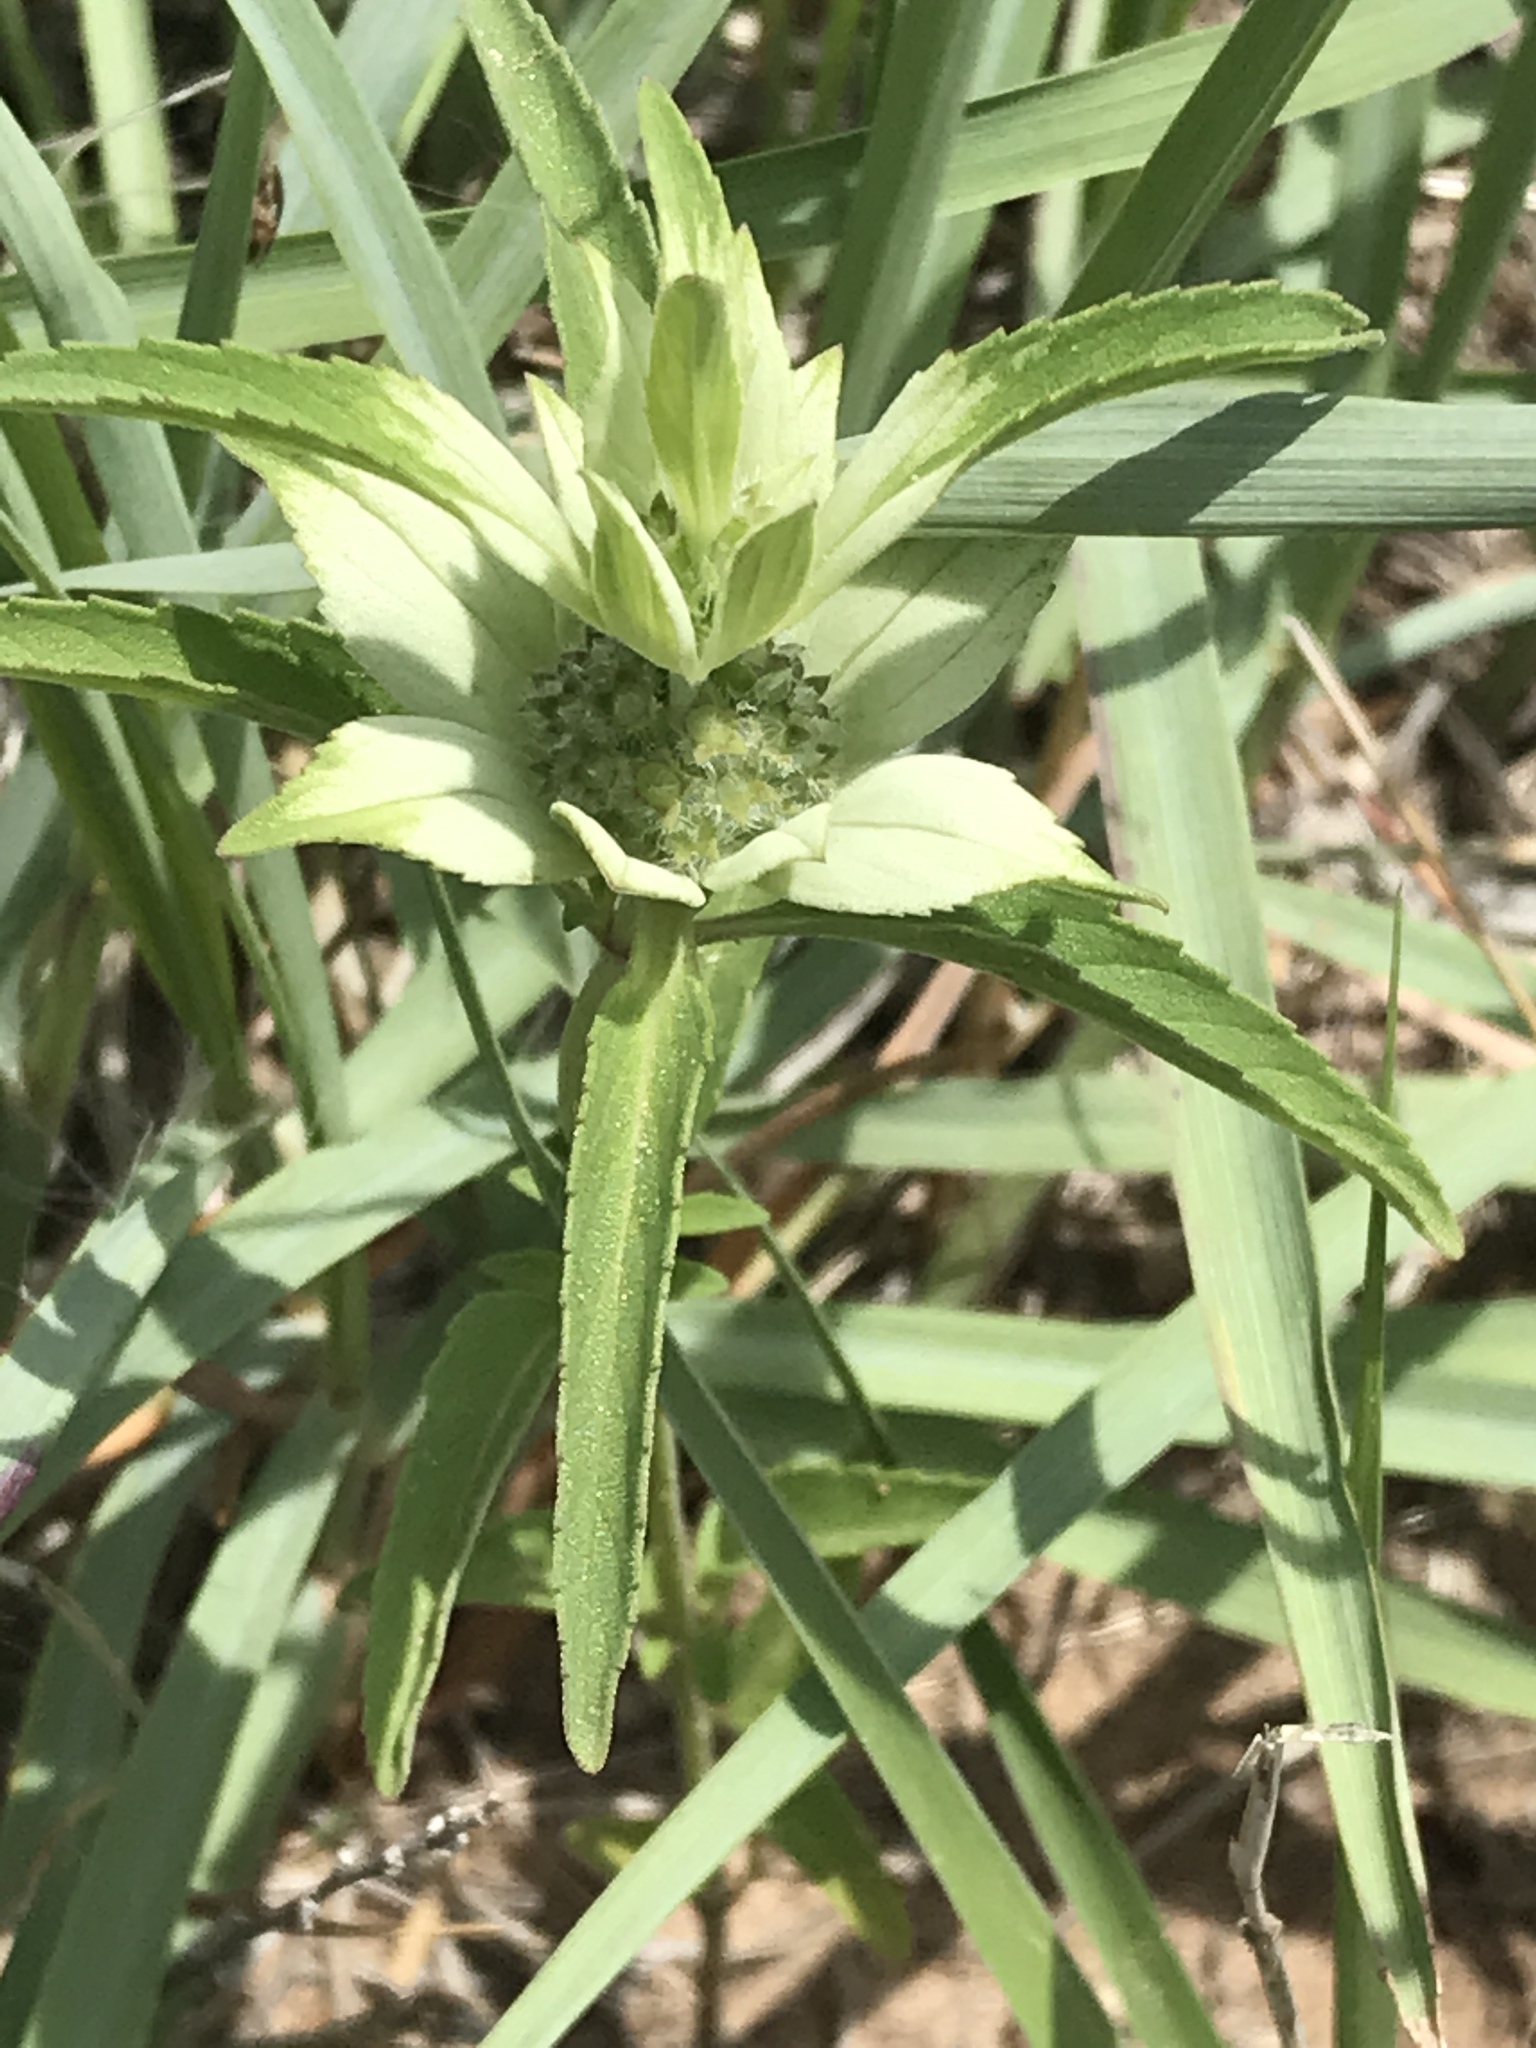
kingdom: Plantae
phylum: Tracheophyta
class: Magnoliopsida
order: Lamiales
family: Lamiaceae
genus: Monarda
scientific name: Monarda punctata
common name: Dotted monarda
